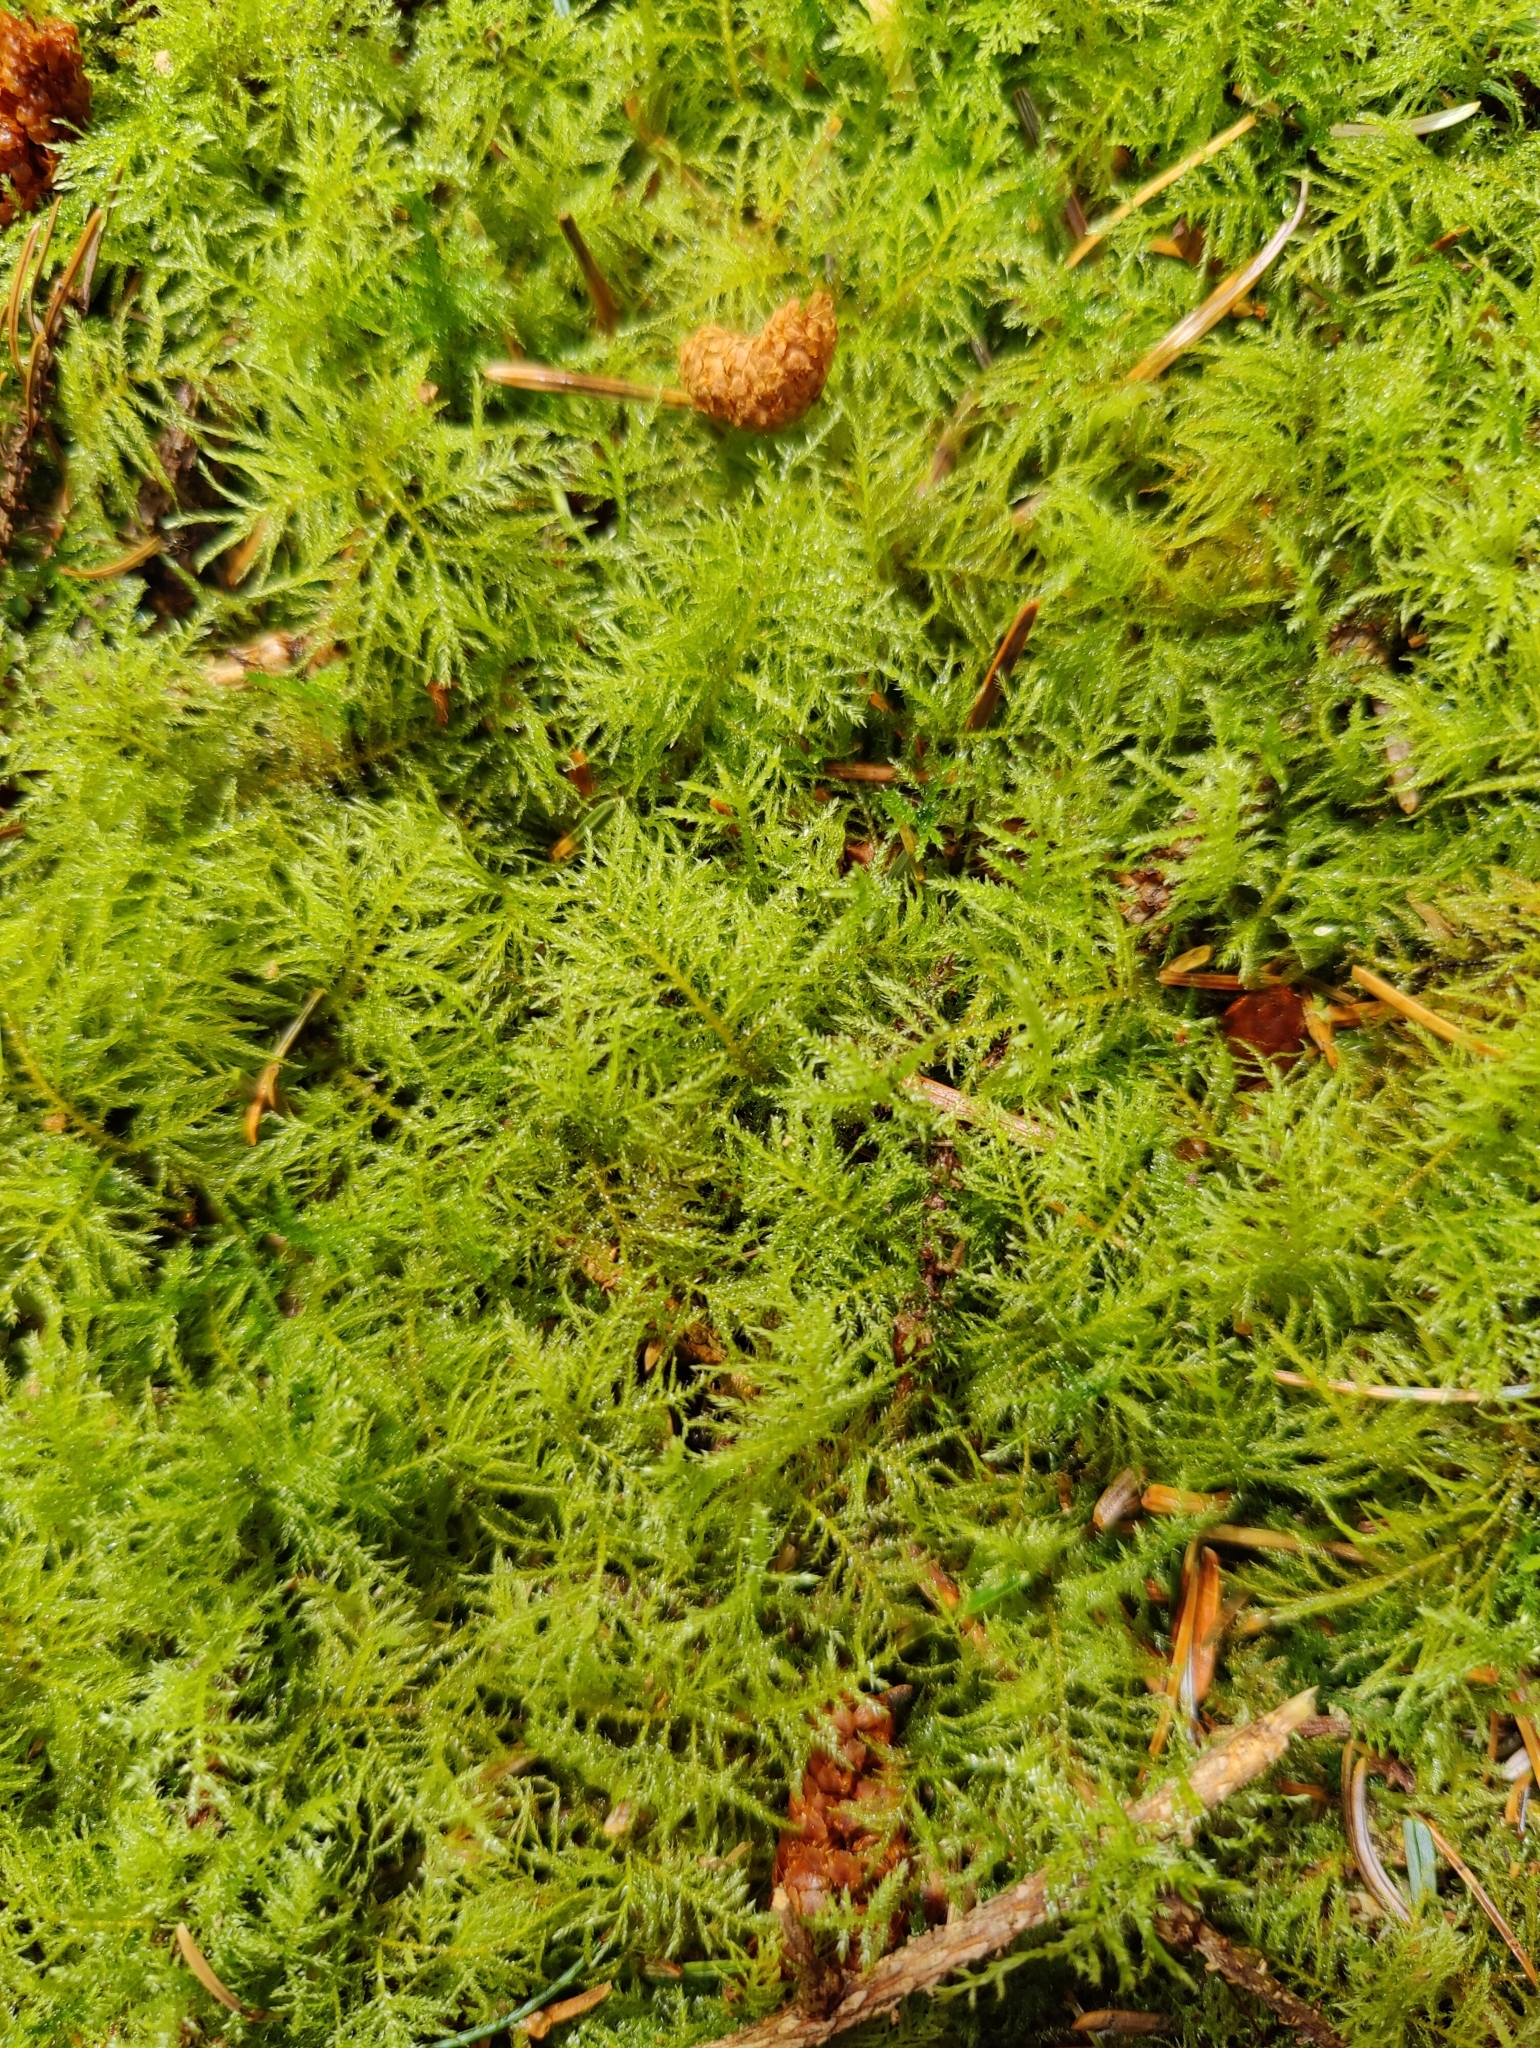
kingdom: Plantae
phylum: Bryophyta
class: Bryopsida
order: Hypnales
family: Brachytheciaceae
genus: Kindbergia
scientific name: Kindbergia praelonga
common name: Slender beaked moss
